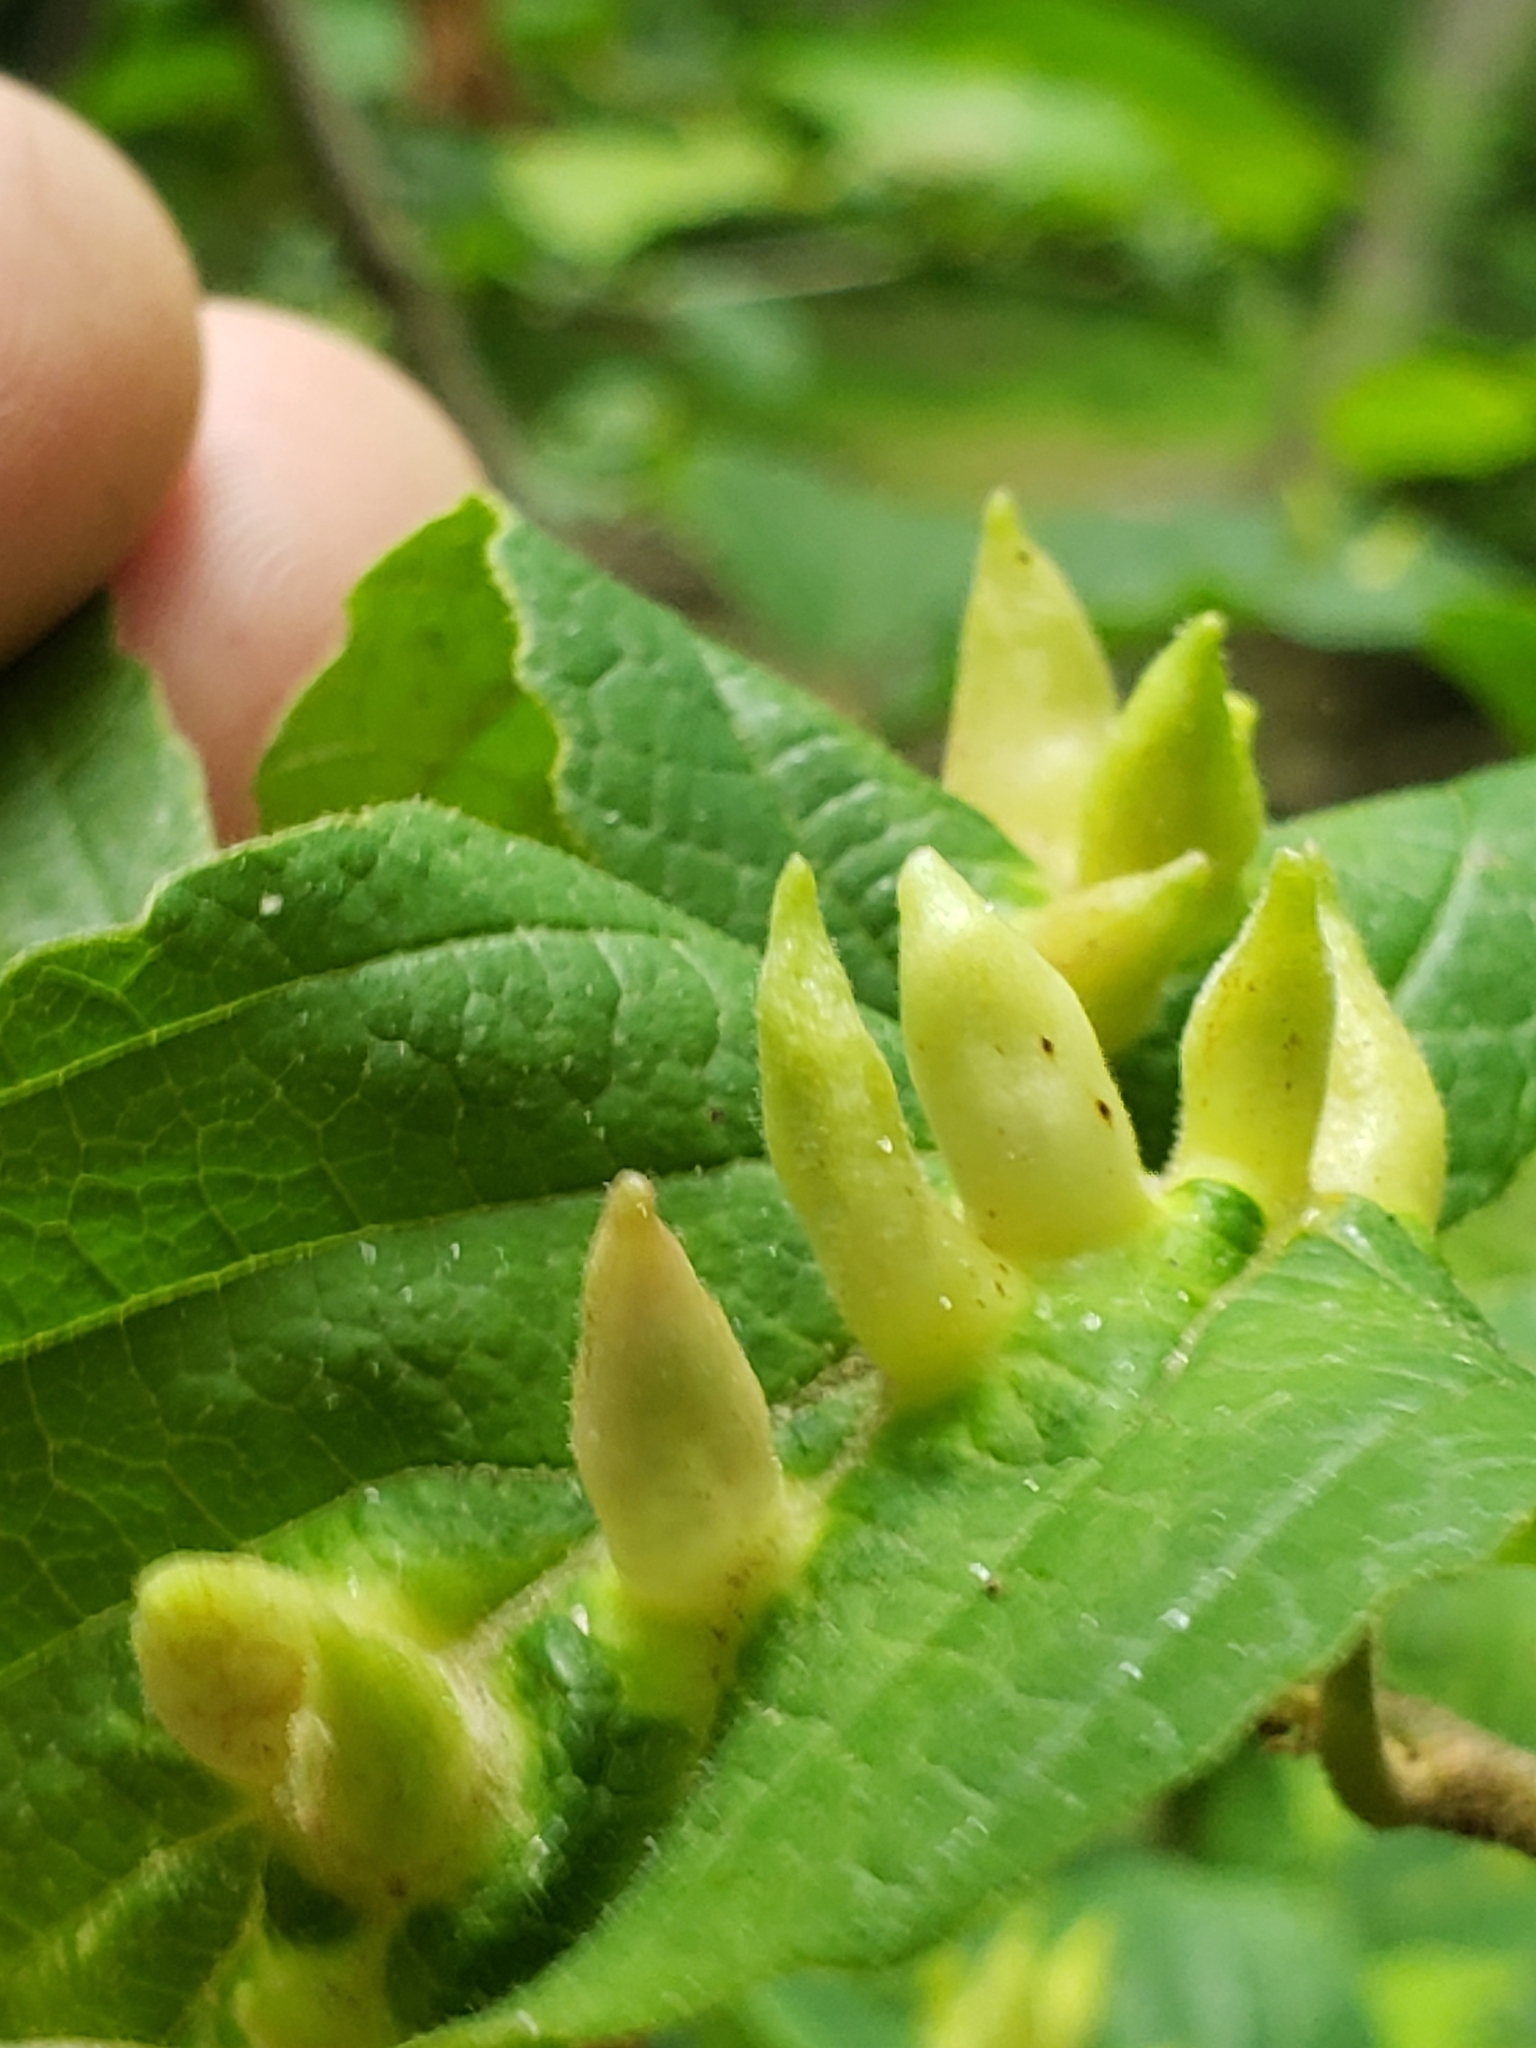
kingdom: Animalia
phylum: Arthropoda
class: Insecta
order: Hemiptera
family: Aphididae
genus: Hormaphis
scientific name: Hormaphis hamamelidis
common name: Witch-hazel cone gall aphid
